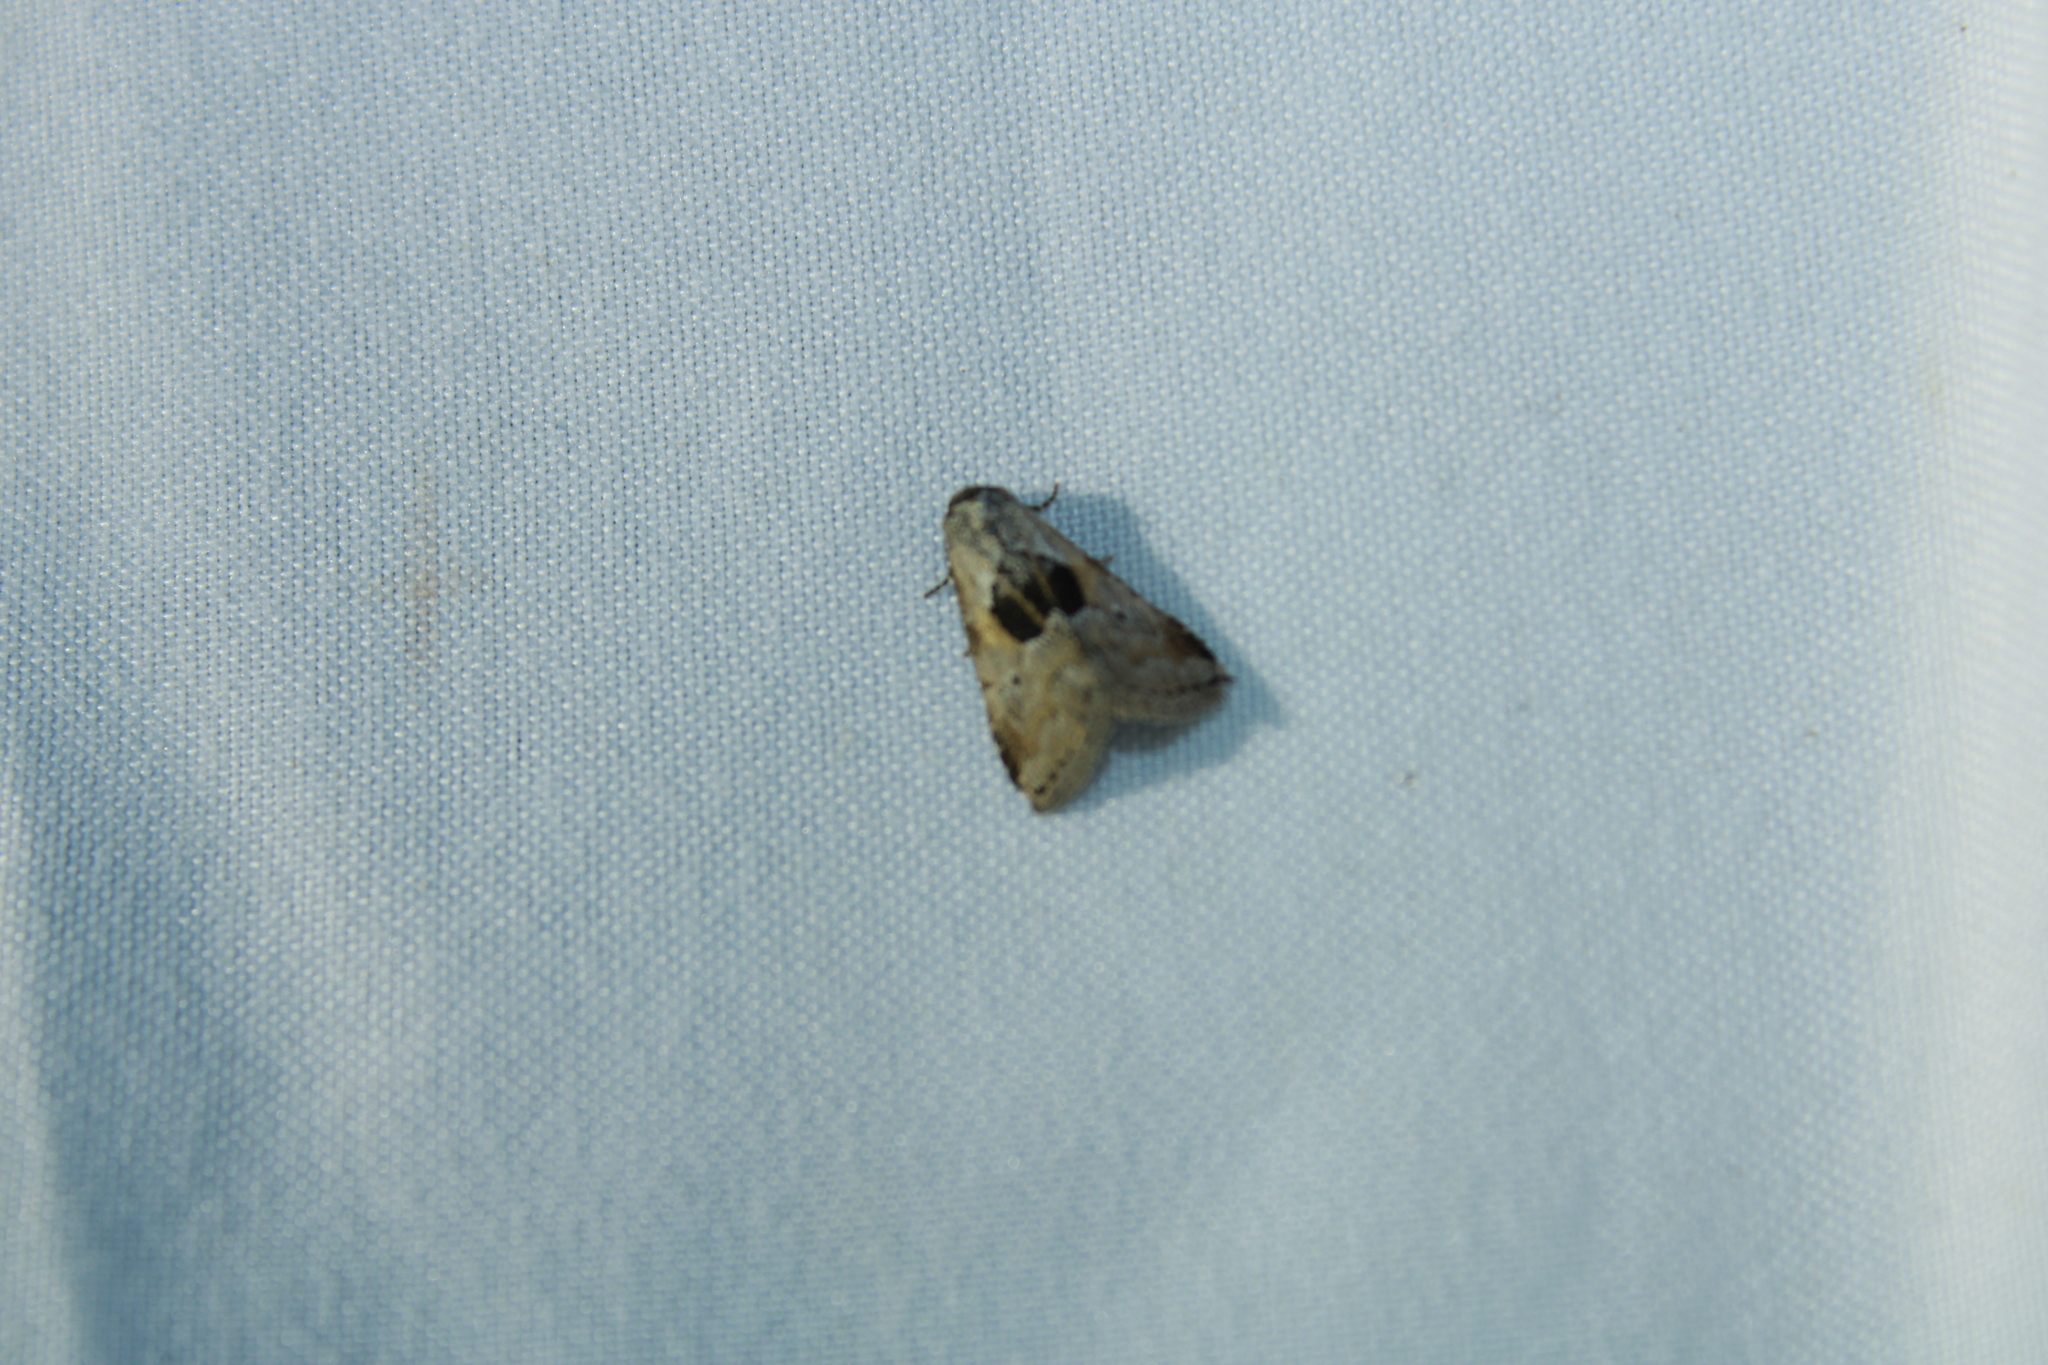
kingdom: Animalia
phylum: Arthropoda
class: Insecta
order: Lepidoptera
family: Erebidae
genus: Hyperstrotia
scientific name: Hyperstrotia secta
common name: Black-patched graylet
